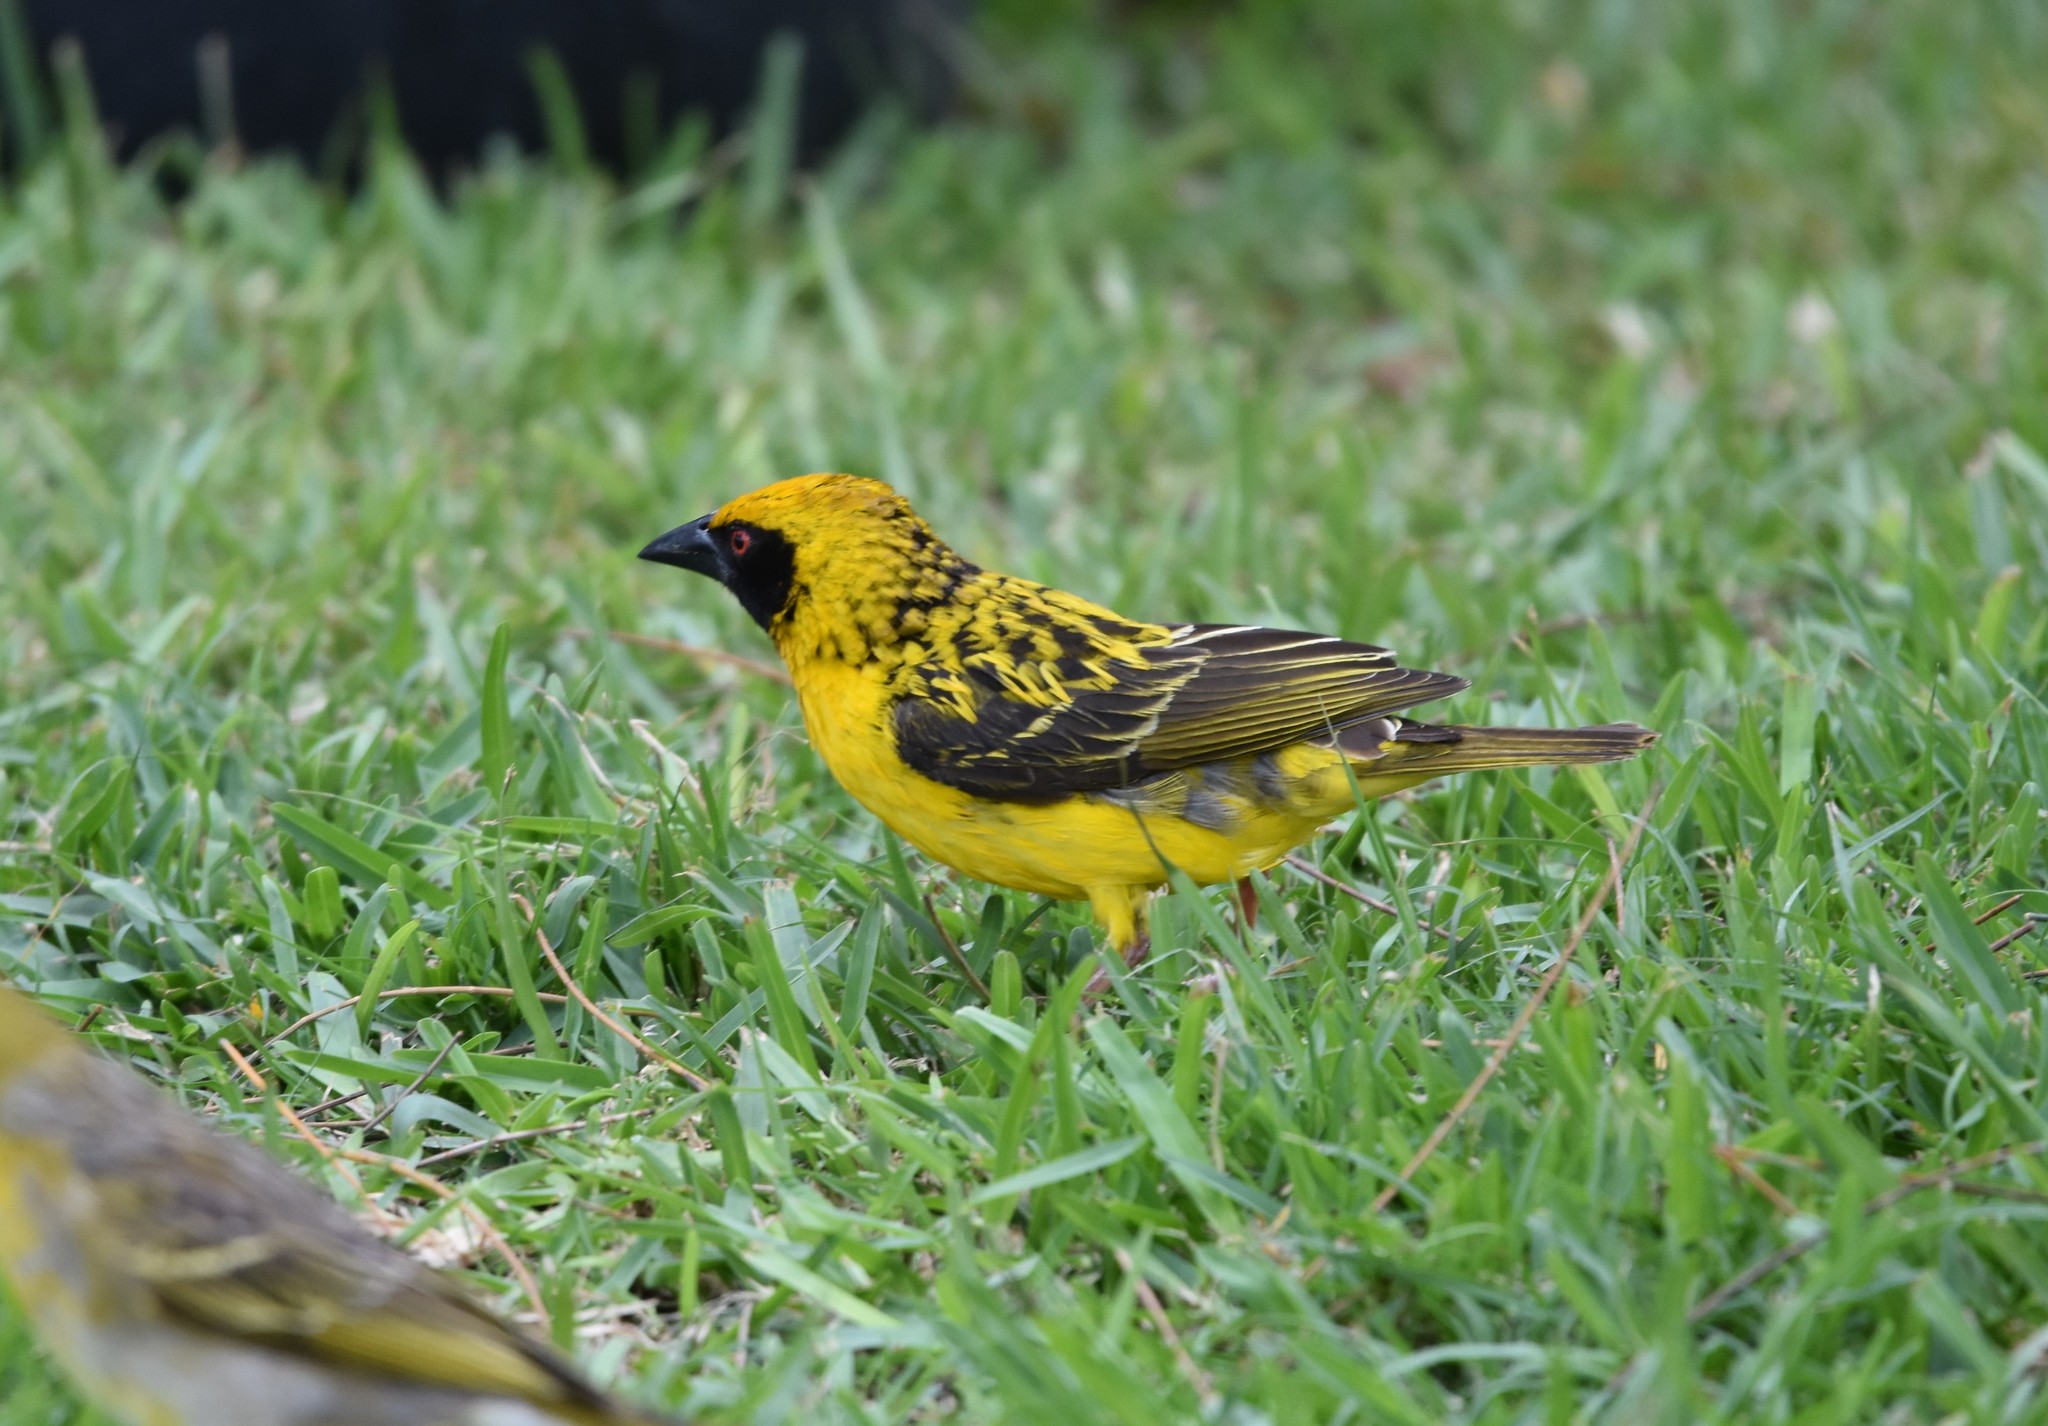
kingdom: Animalia
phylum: Chordata
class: Aves
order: Passeriformes
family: Ploceidae
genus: Ploceus
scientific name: Ploceus cucullatus
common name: Village weaver
